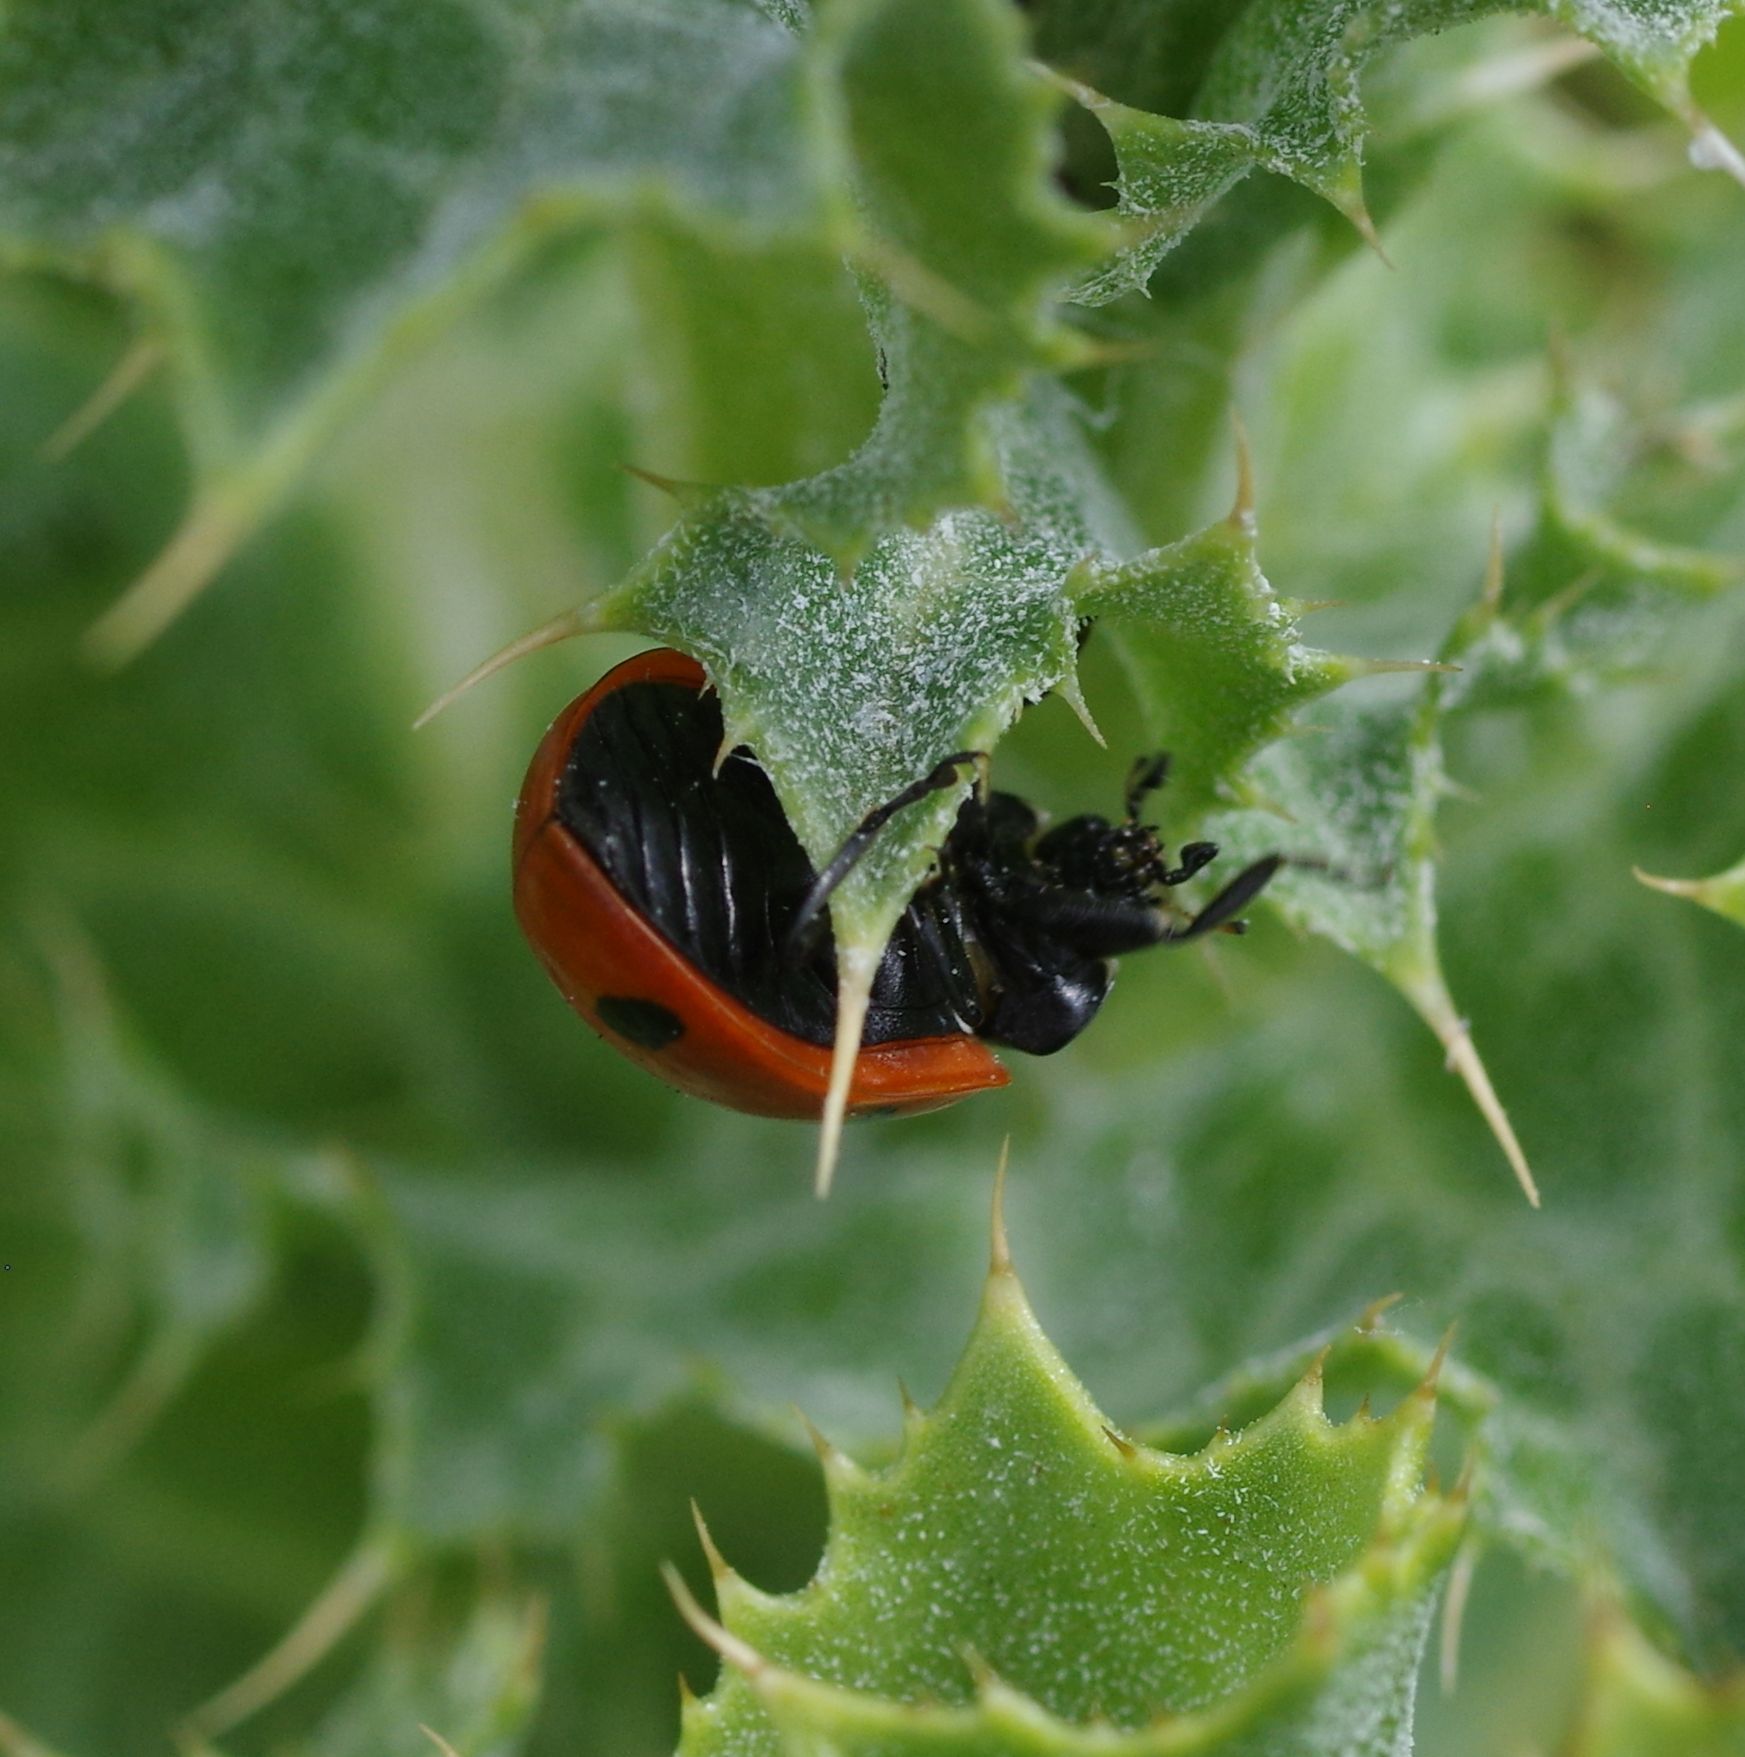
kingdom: Animalia
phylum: Arthropoda
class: Insecta
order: Coleoptera
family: Coccinellidae
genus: Coccinella
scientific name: Coccinella septempunctata
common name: Sevenspotted lady beetle
